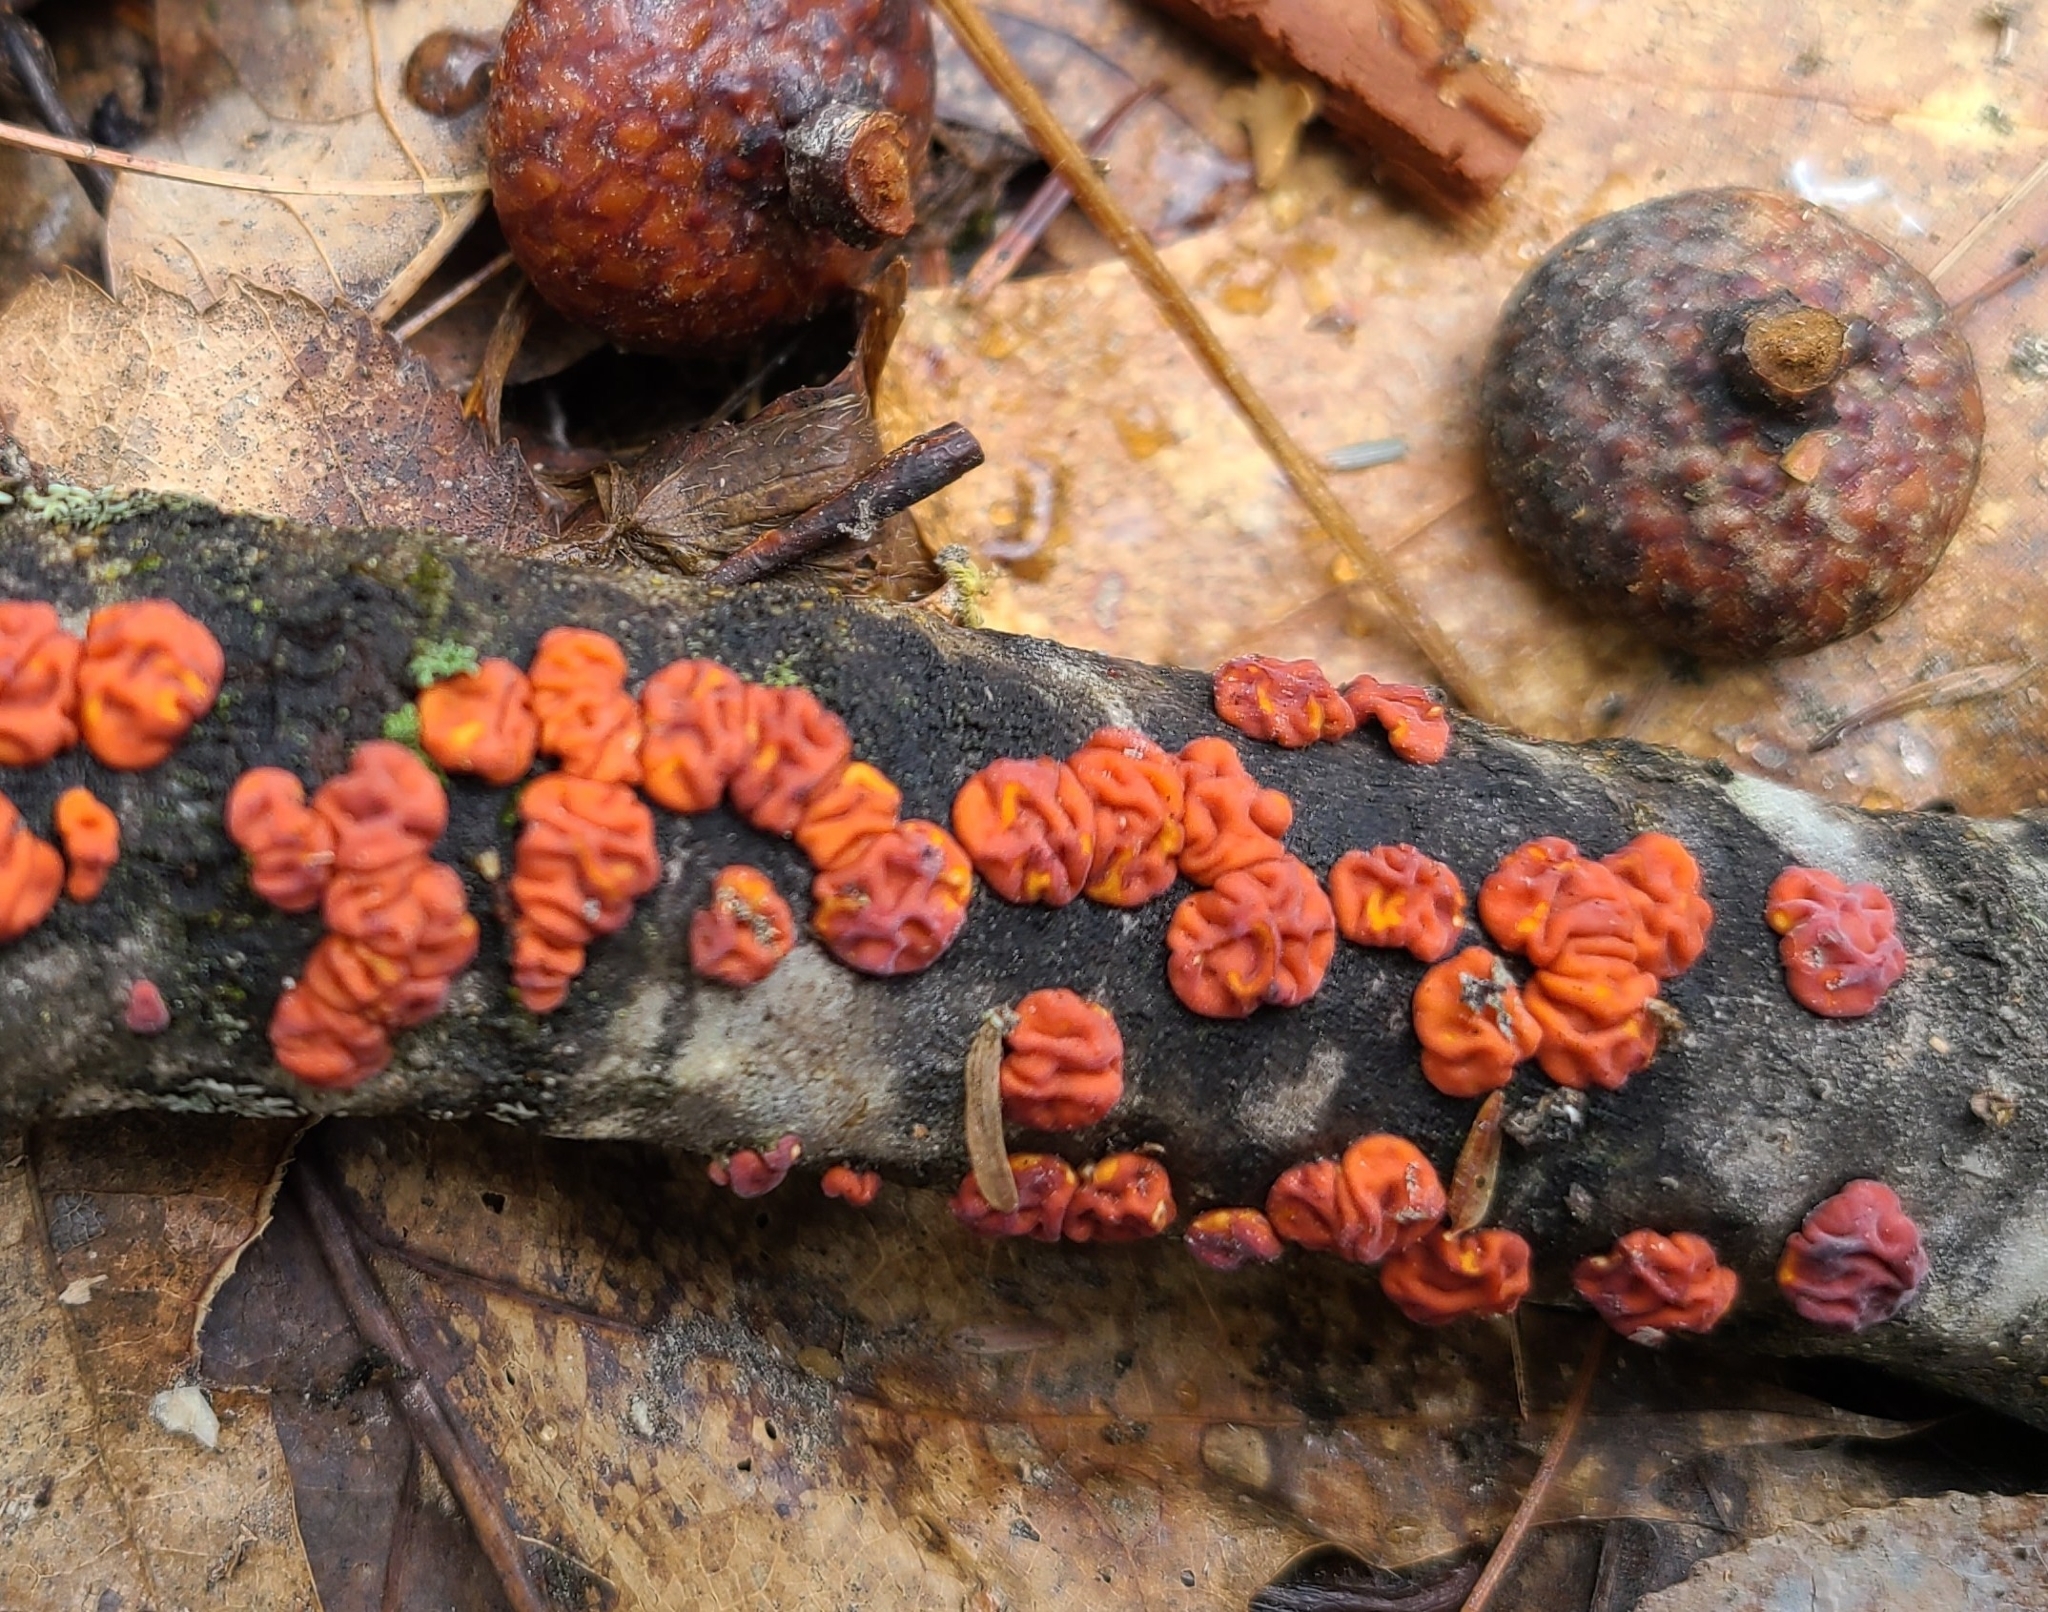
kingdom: Fungi
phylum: Basidiomycota
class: Agaricomycetes
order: Russulales
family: Peniophoraceae
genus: Peniophora
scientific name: Peniophora rufa
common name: Red tree brain fungus
